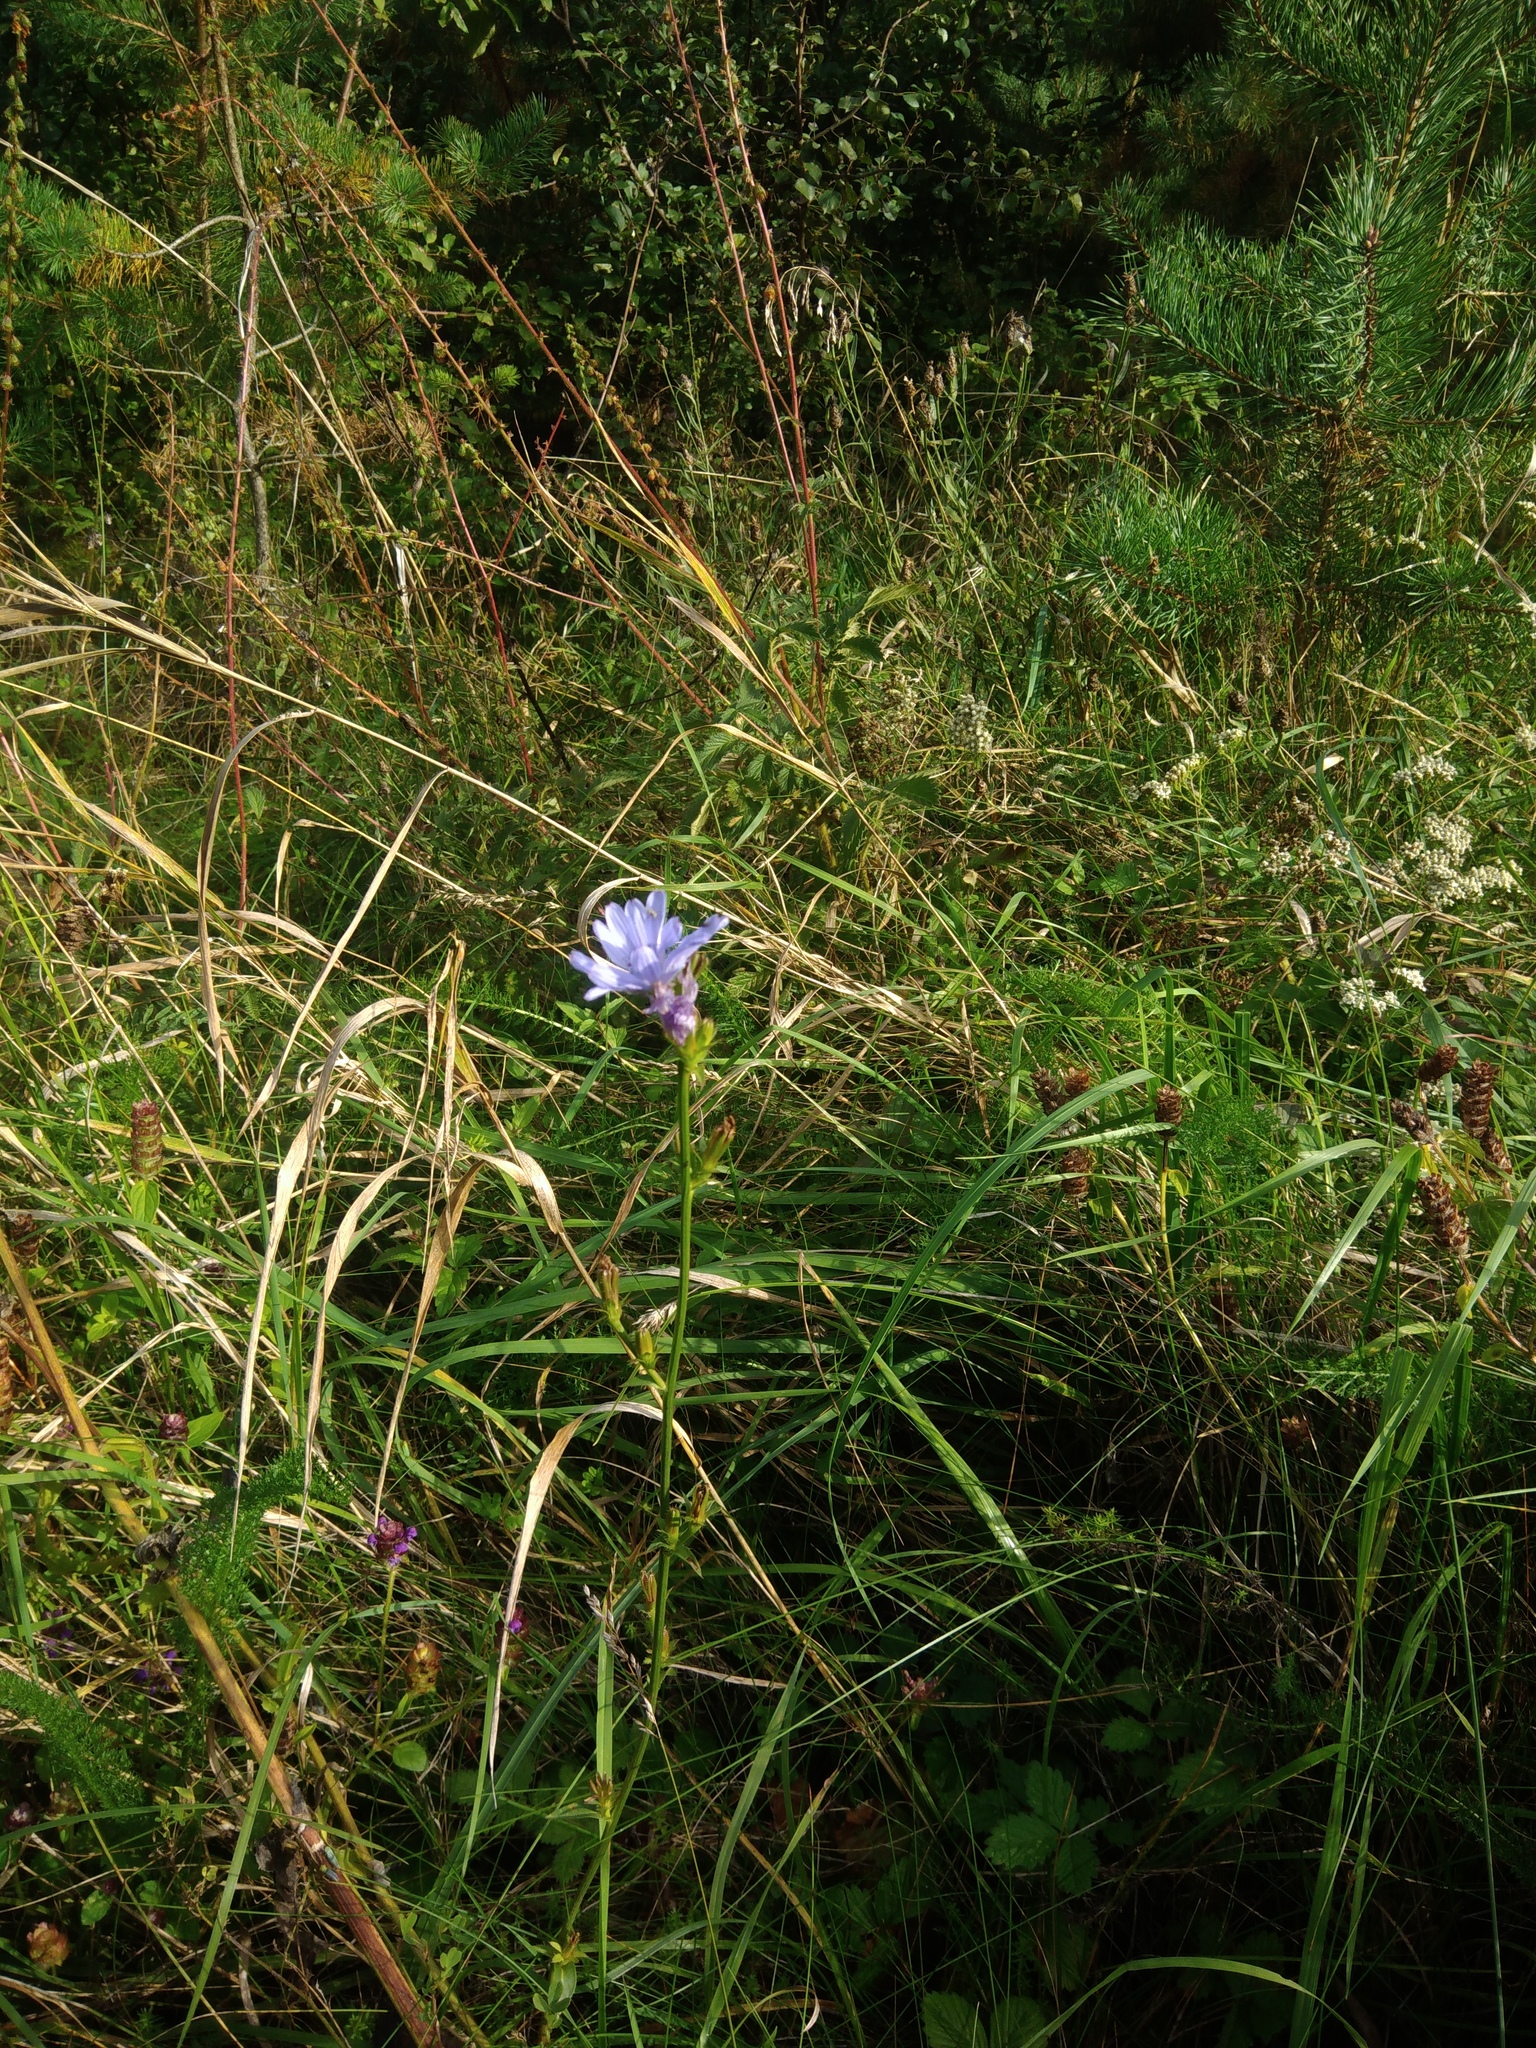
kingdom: Plantae
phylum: Tracheophyta
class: Magnoliopsida
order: Asterales
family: Asteraceae
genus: Cichorium
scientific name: Cichorium intybus
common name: Chicory
